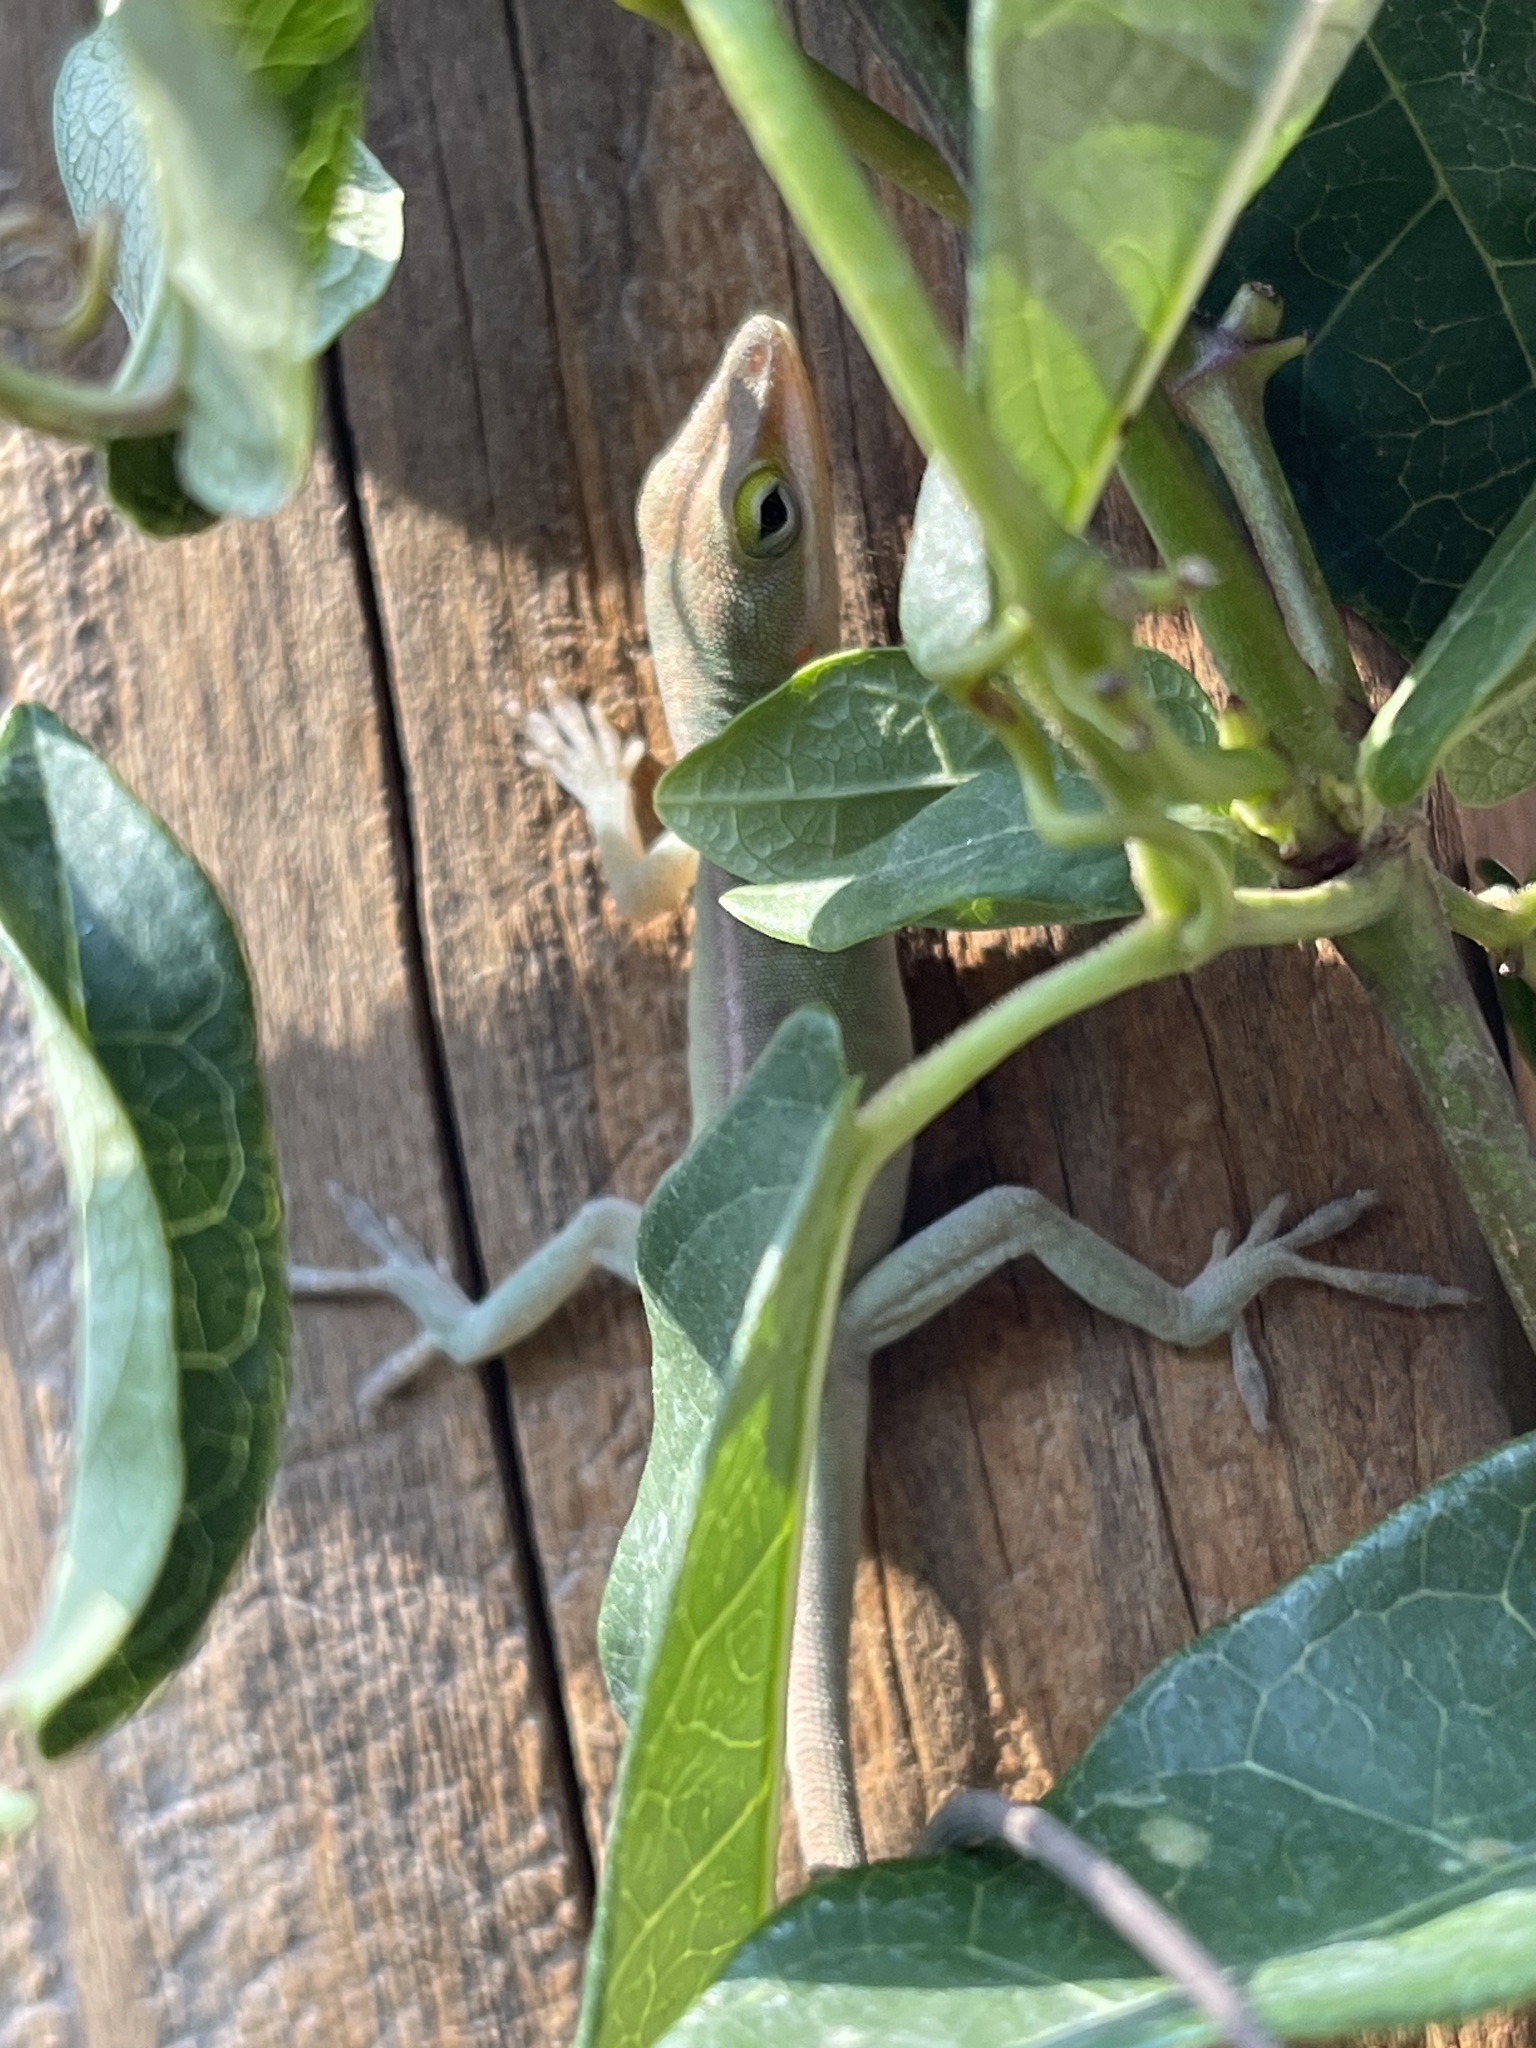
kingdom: Animalia
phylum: Chordata
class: Squamata
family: Dactyloidae
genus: Anolis
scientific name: Anolis carolinensis
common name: Green anole
